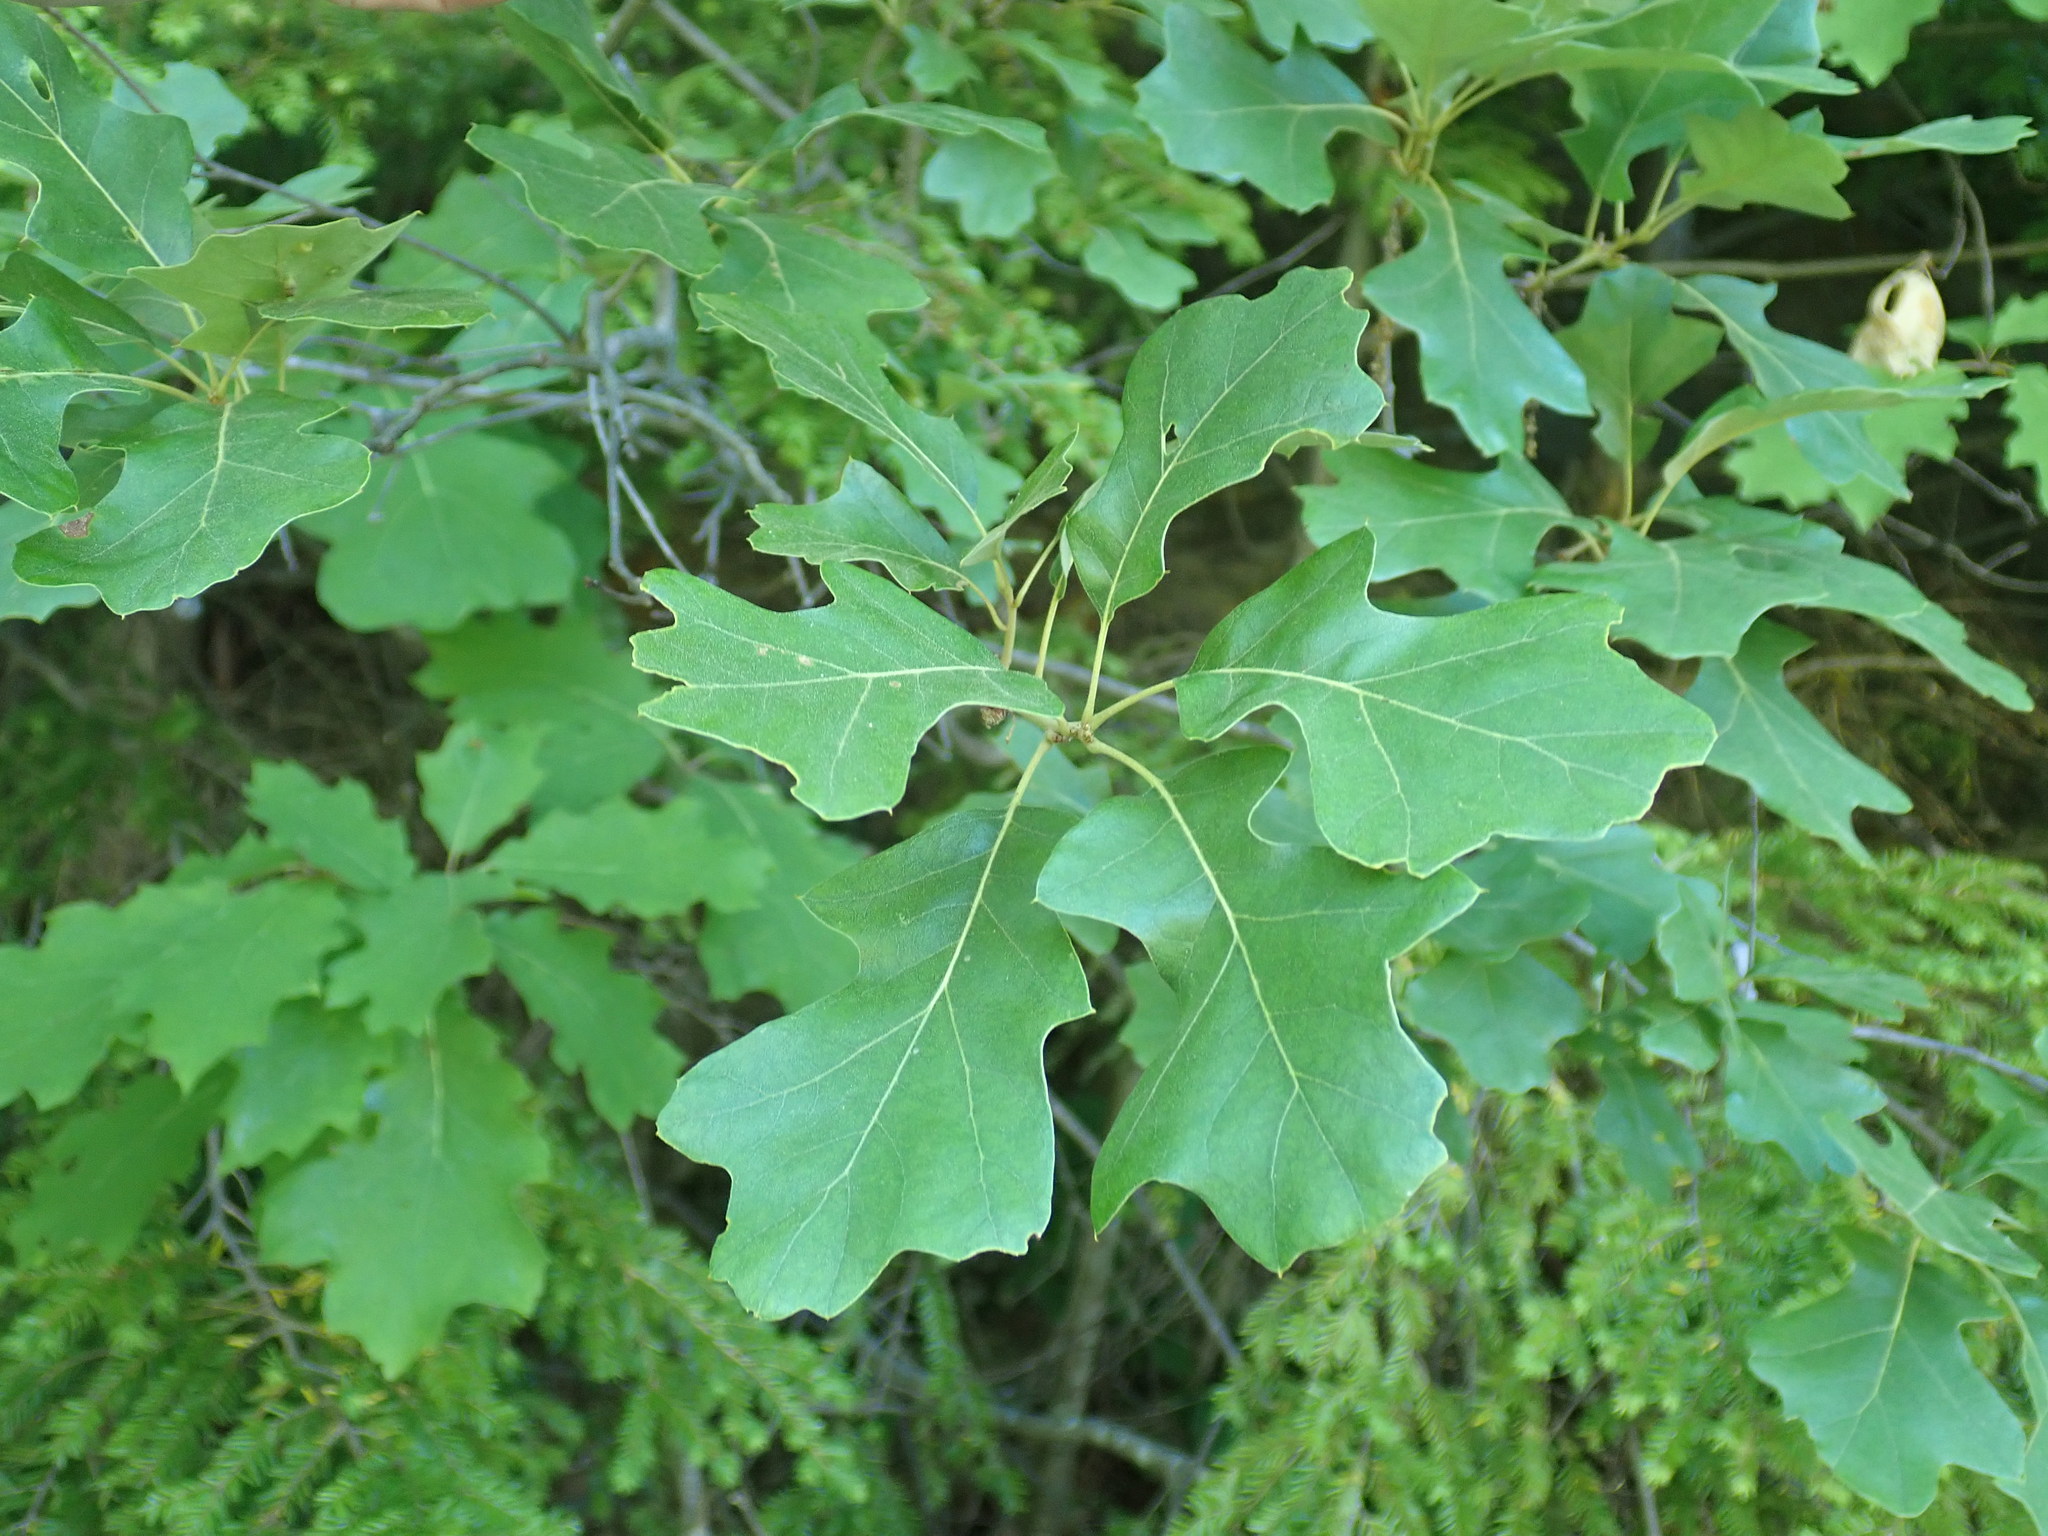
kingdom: Plantae
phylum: Tracheophyta
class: Magnoliopsida
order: Fagales
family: Fagaceae
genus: Quercus
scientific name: Quercus ilicifolia
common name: Bear oak
